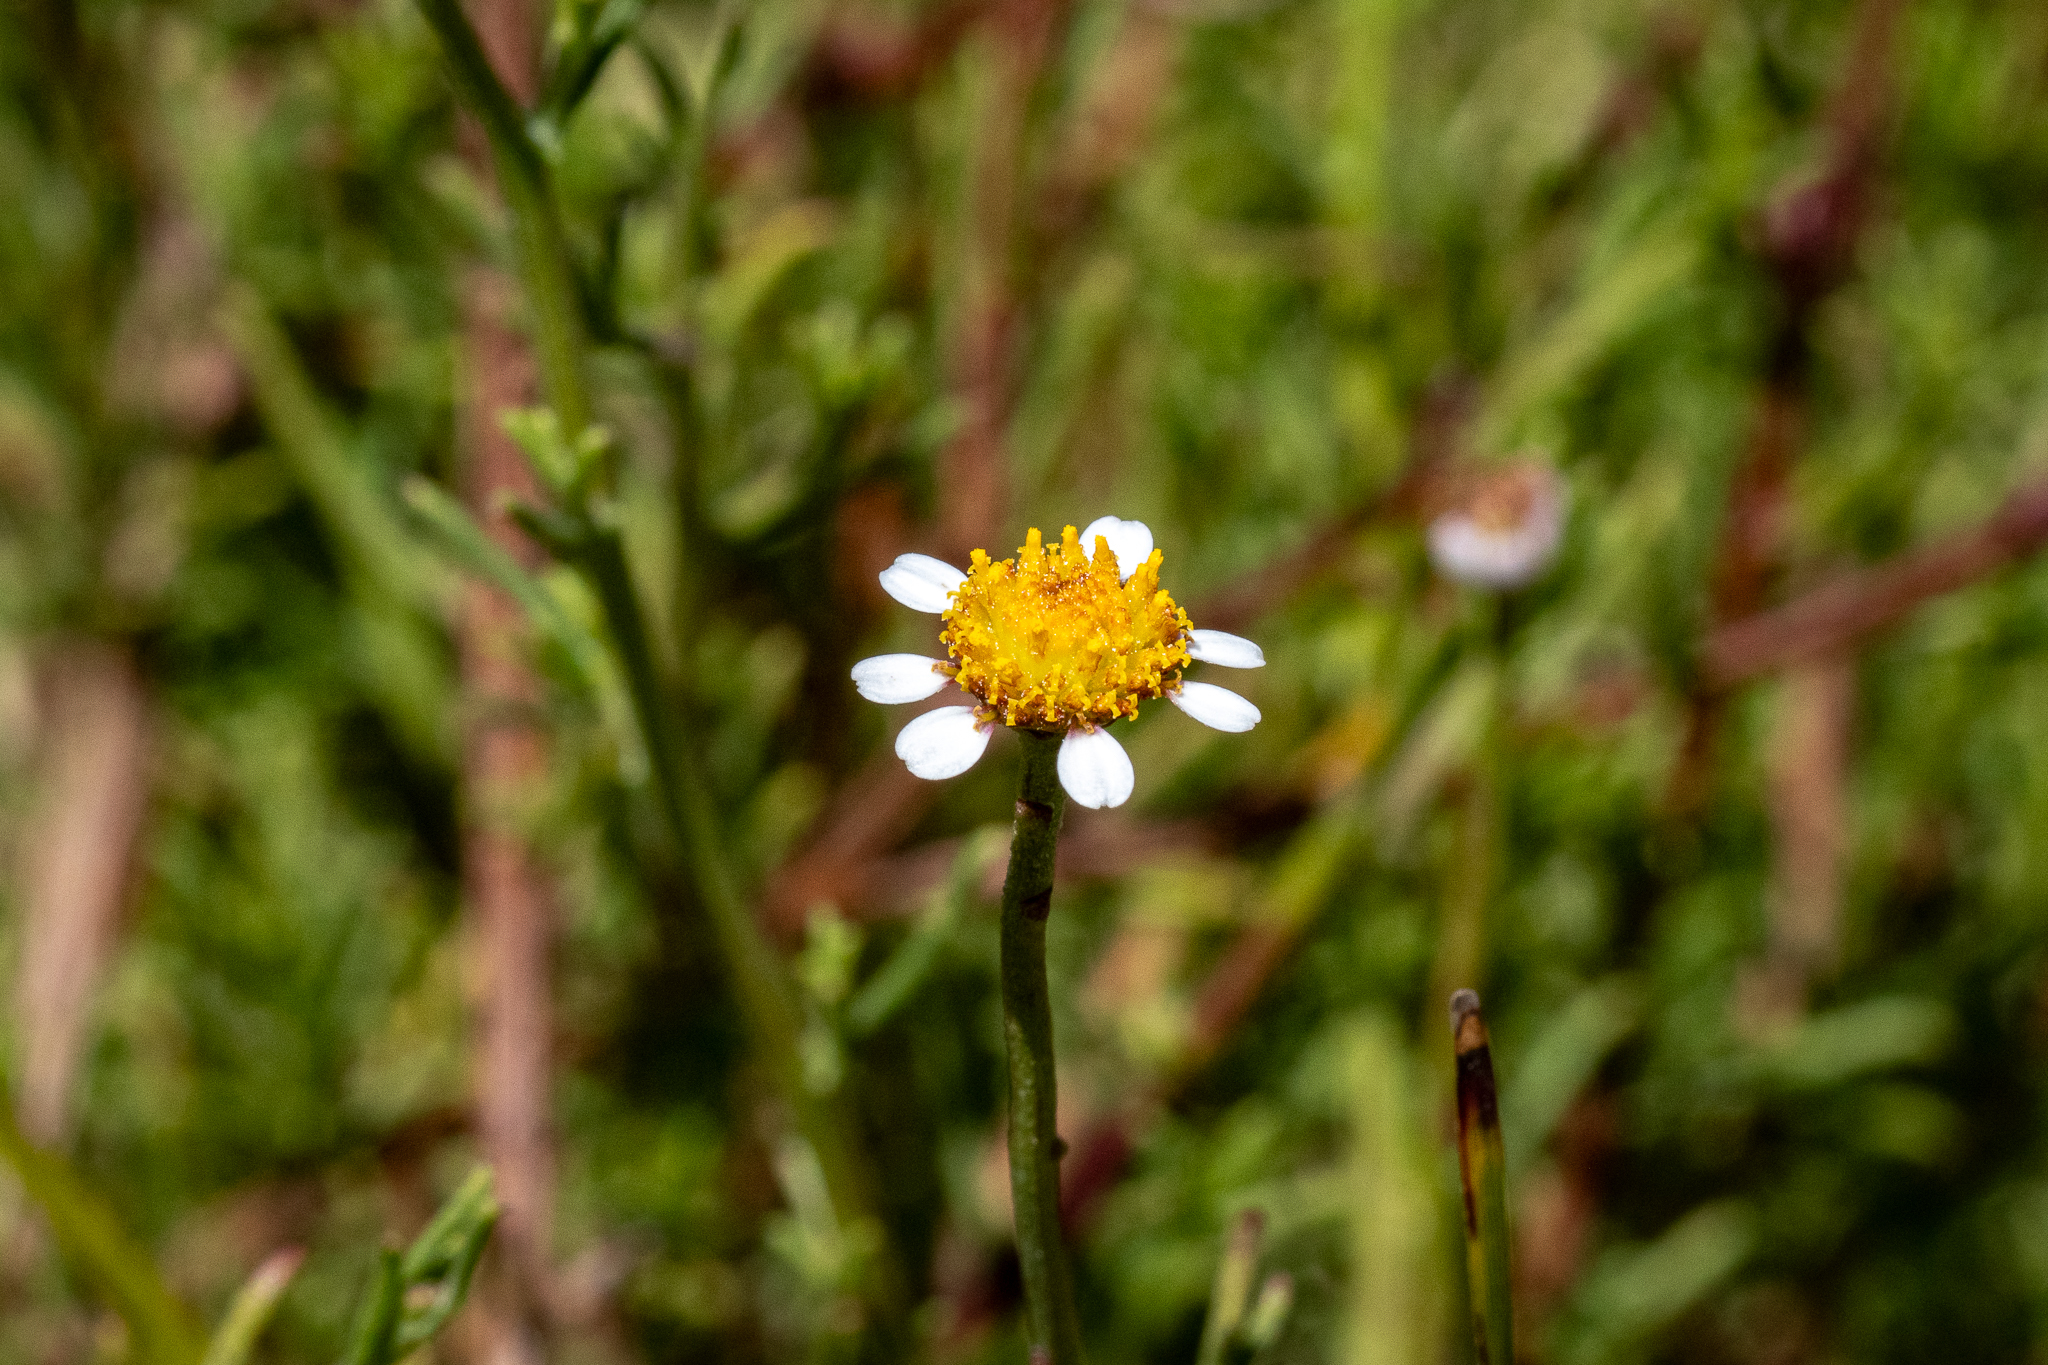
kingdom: Plantae
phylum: Tracheophyta
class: Magnoliopsida
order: Asterales
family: Asteraceae
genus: Cymbopappus
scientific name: Cymbopappus adenosolen
